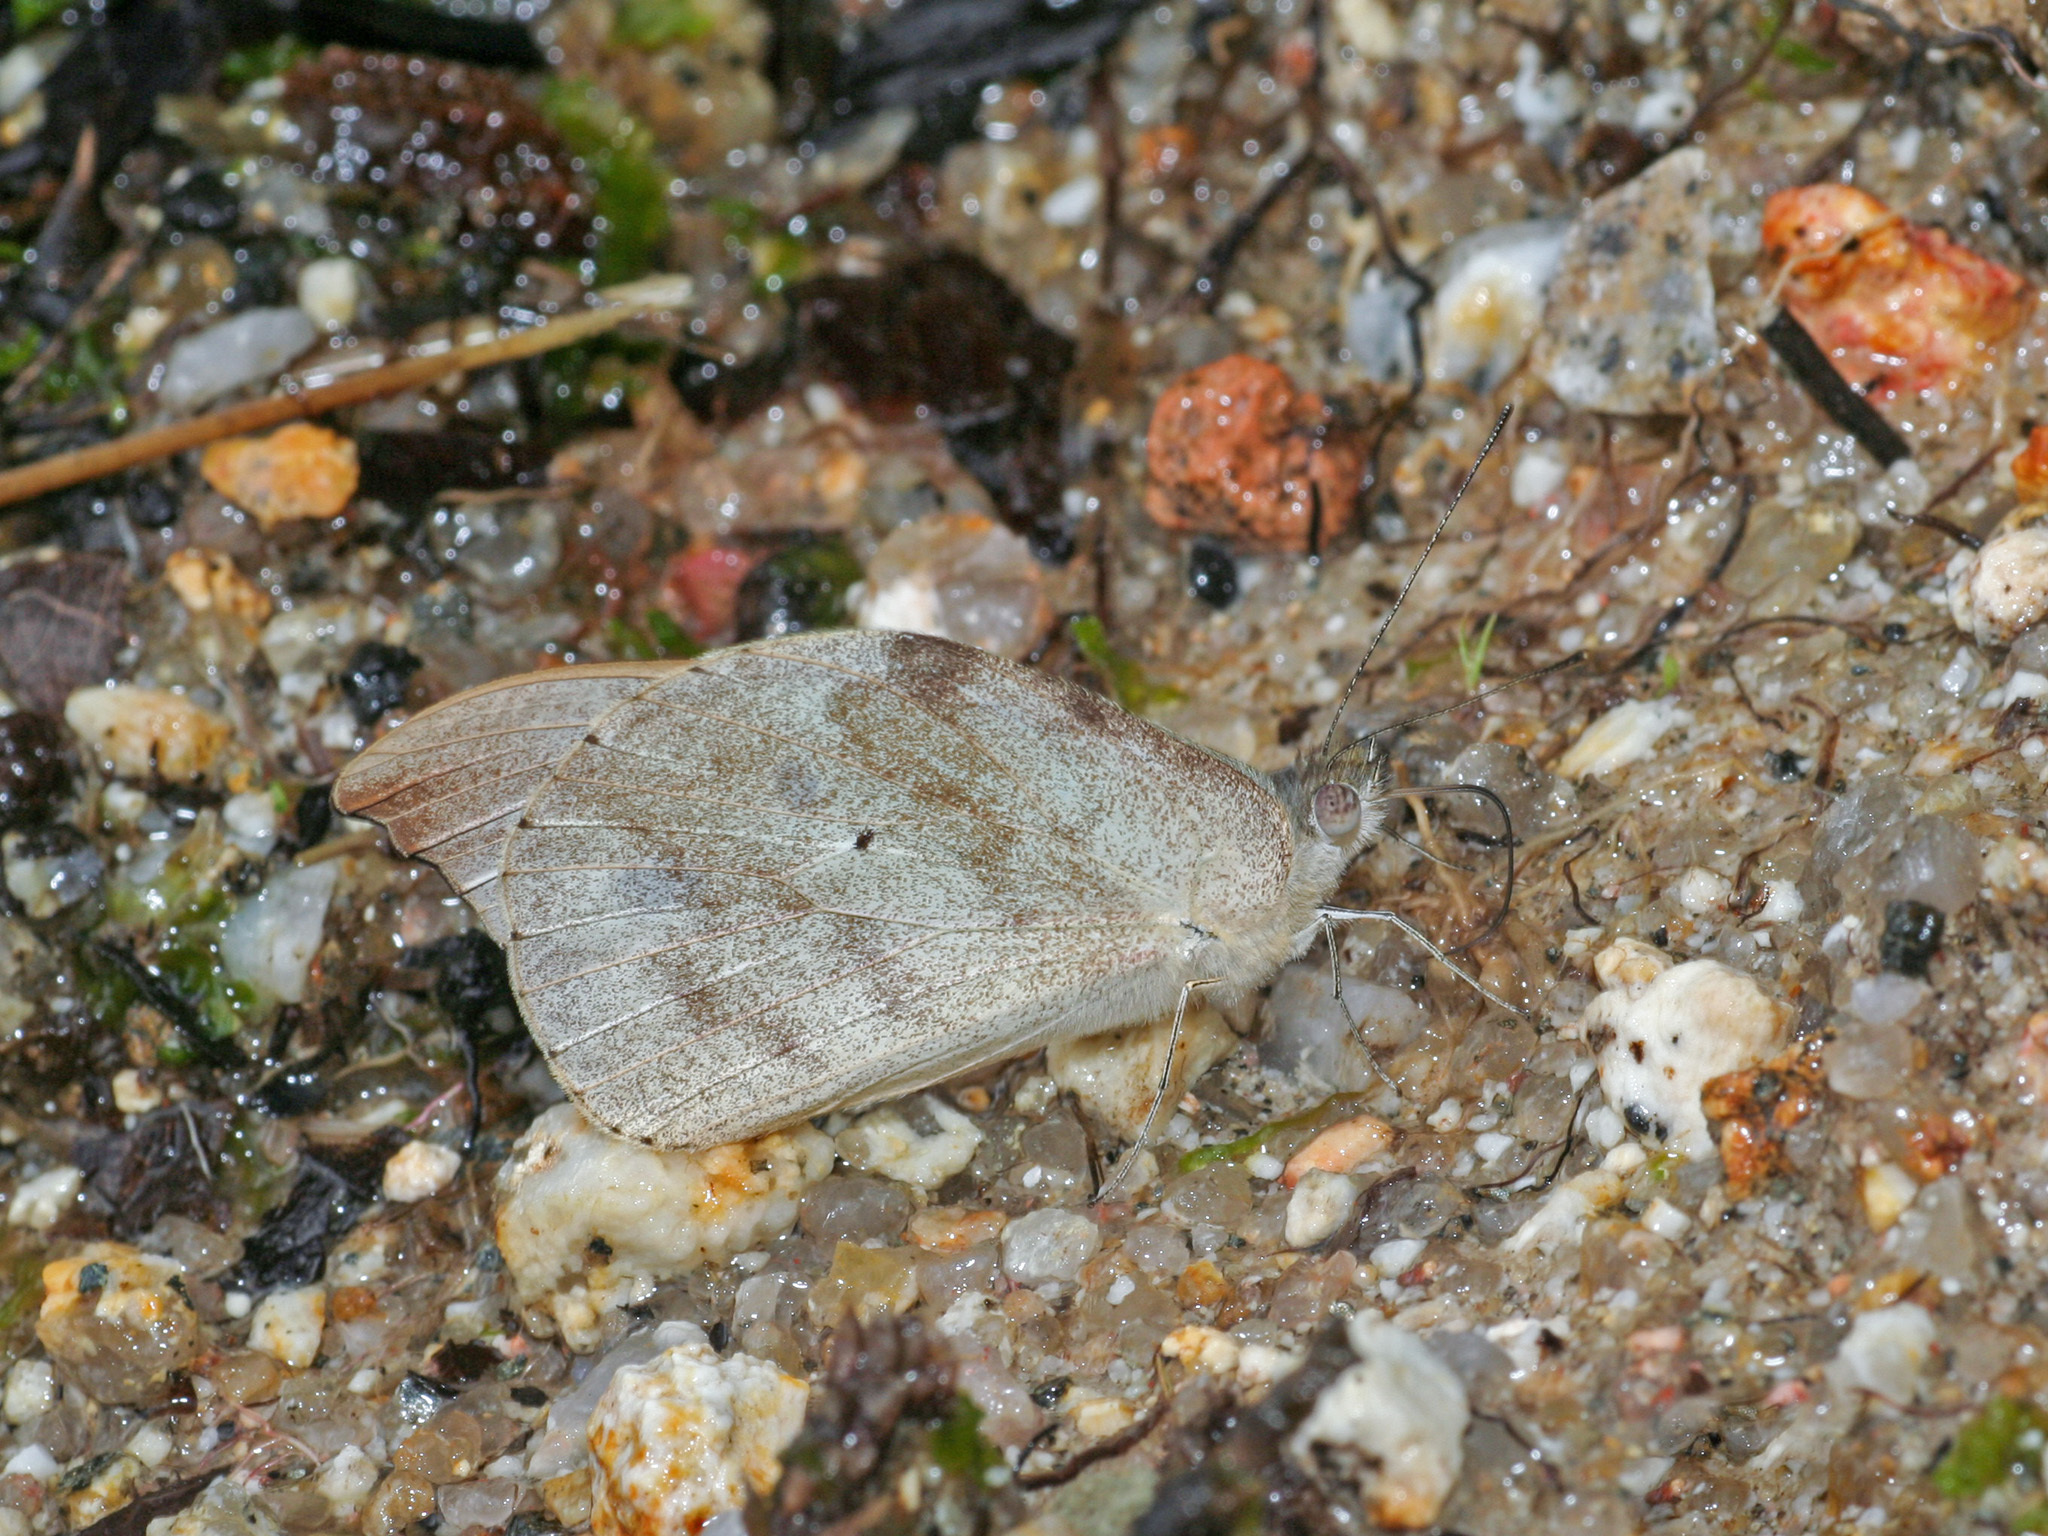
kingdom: Animalia
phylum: Arthropoda
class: Insecta
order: Lepidoptera
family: Pieridae
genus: Appias
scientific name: Appias lalassis
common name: Burmese puffin
